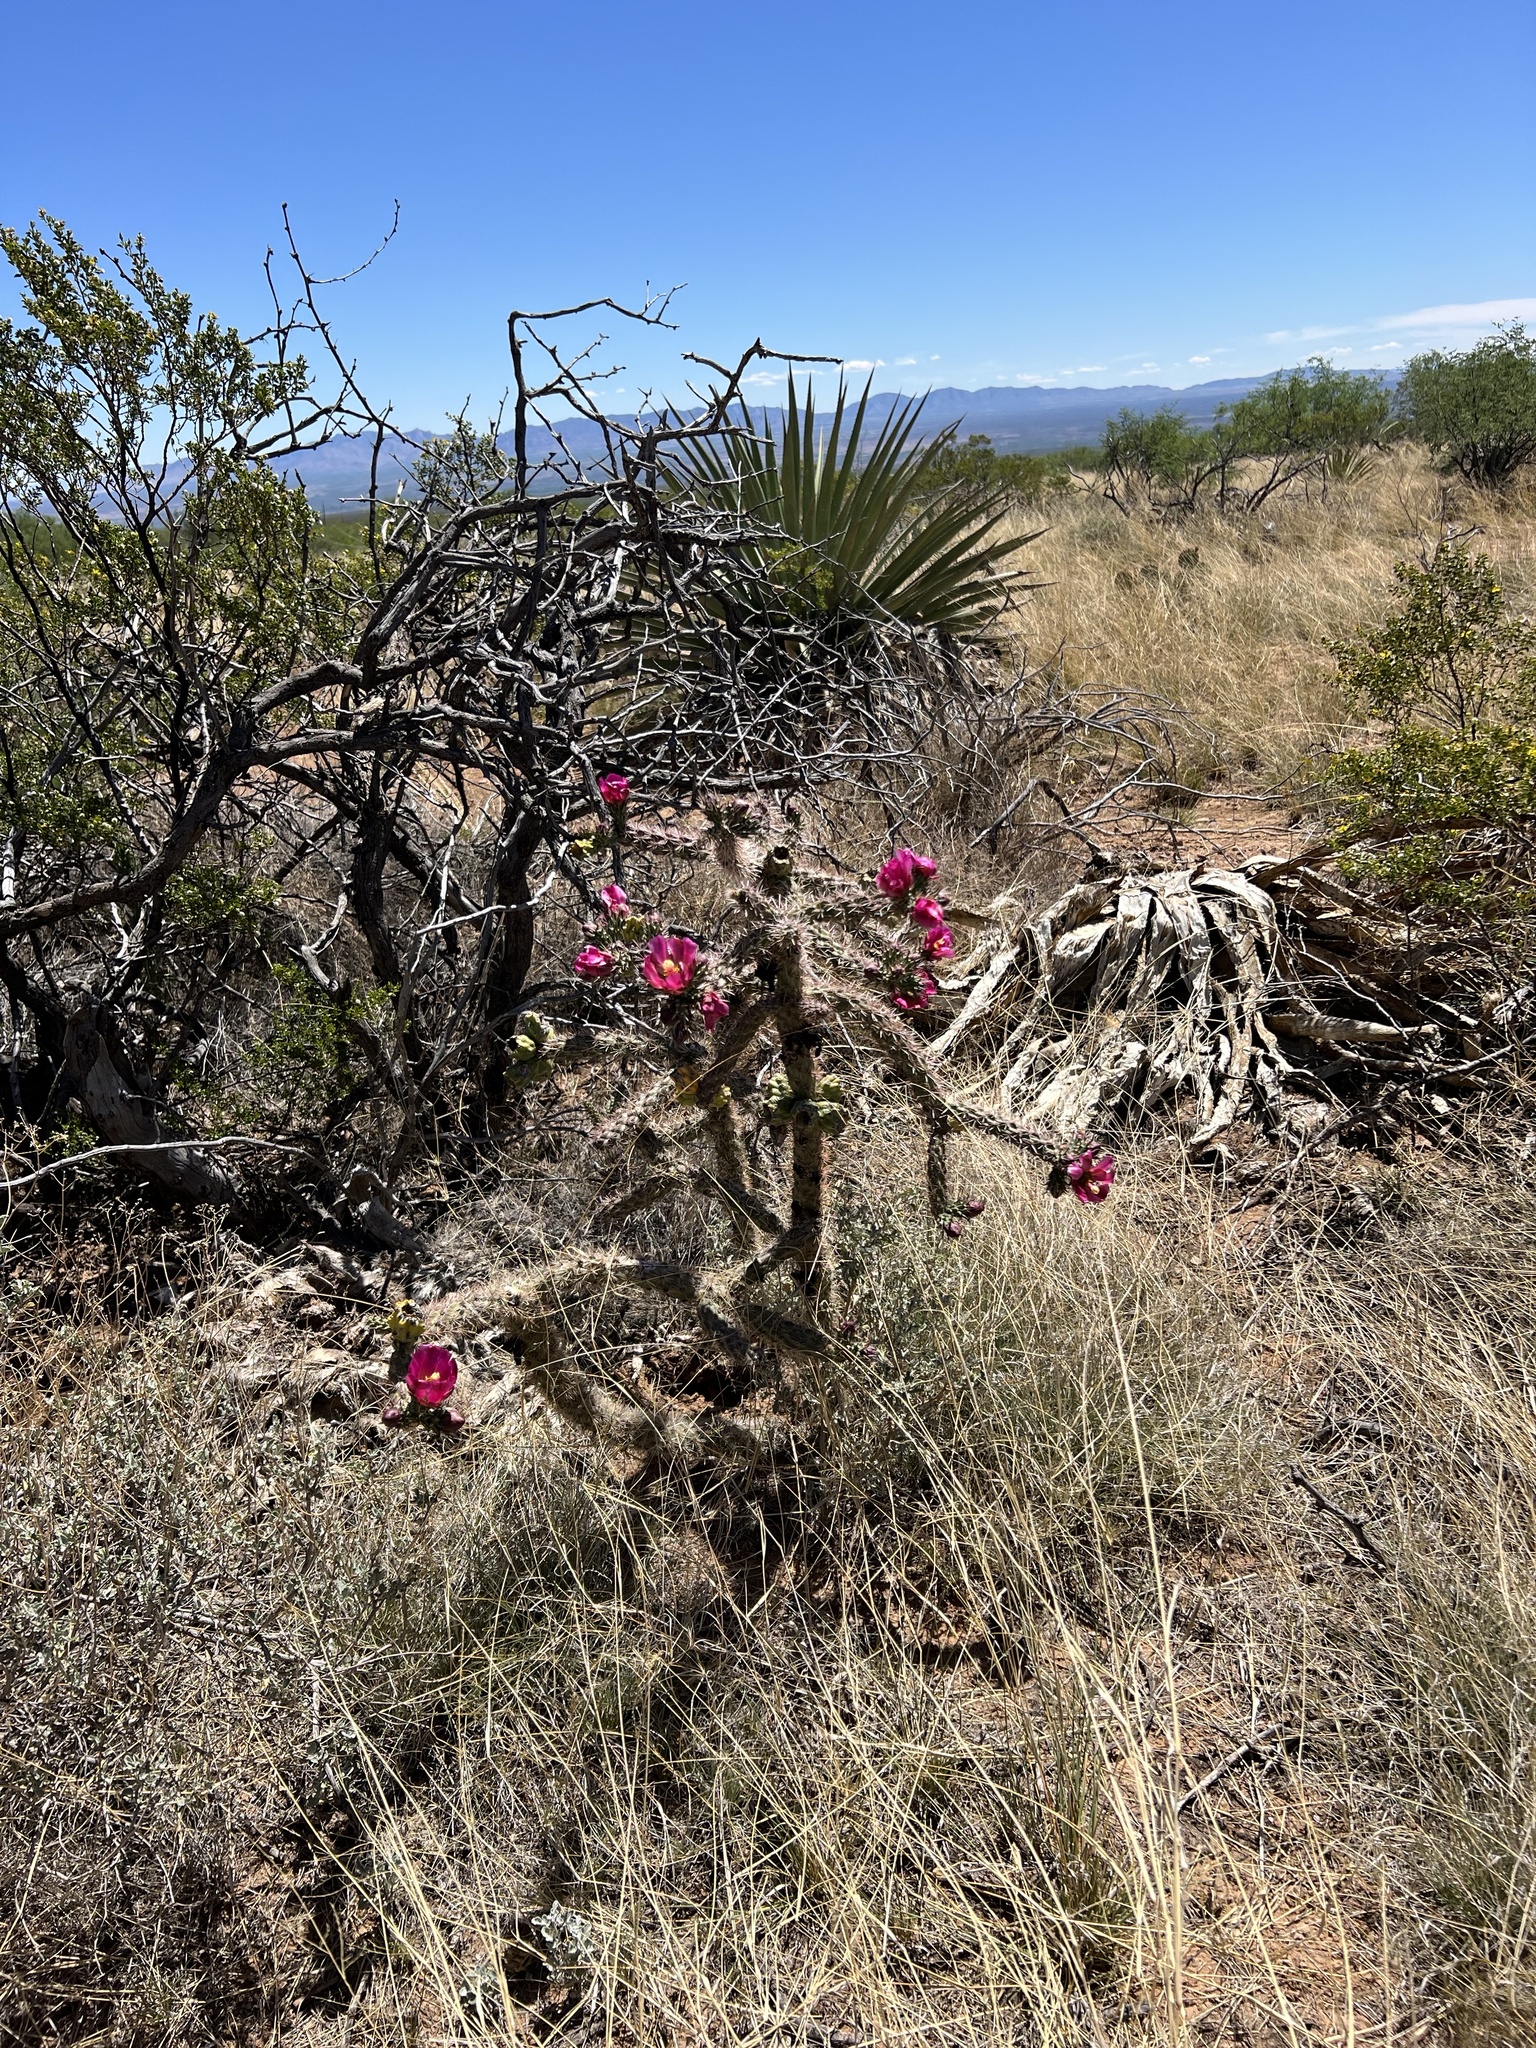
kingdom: Plantae
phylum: Tracheophyta
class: Magnoliopsida
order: Caryophyllales
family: Cactaceae
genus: Cylindropuntia
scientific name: Cylindropuntia imbricata
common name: Candelabrum cactus
